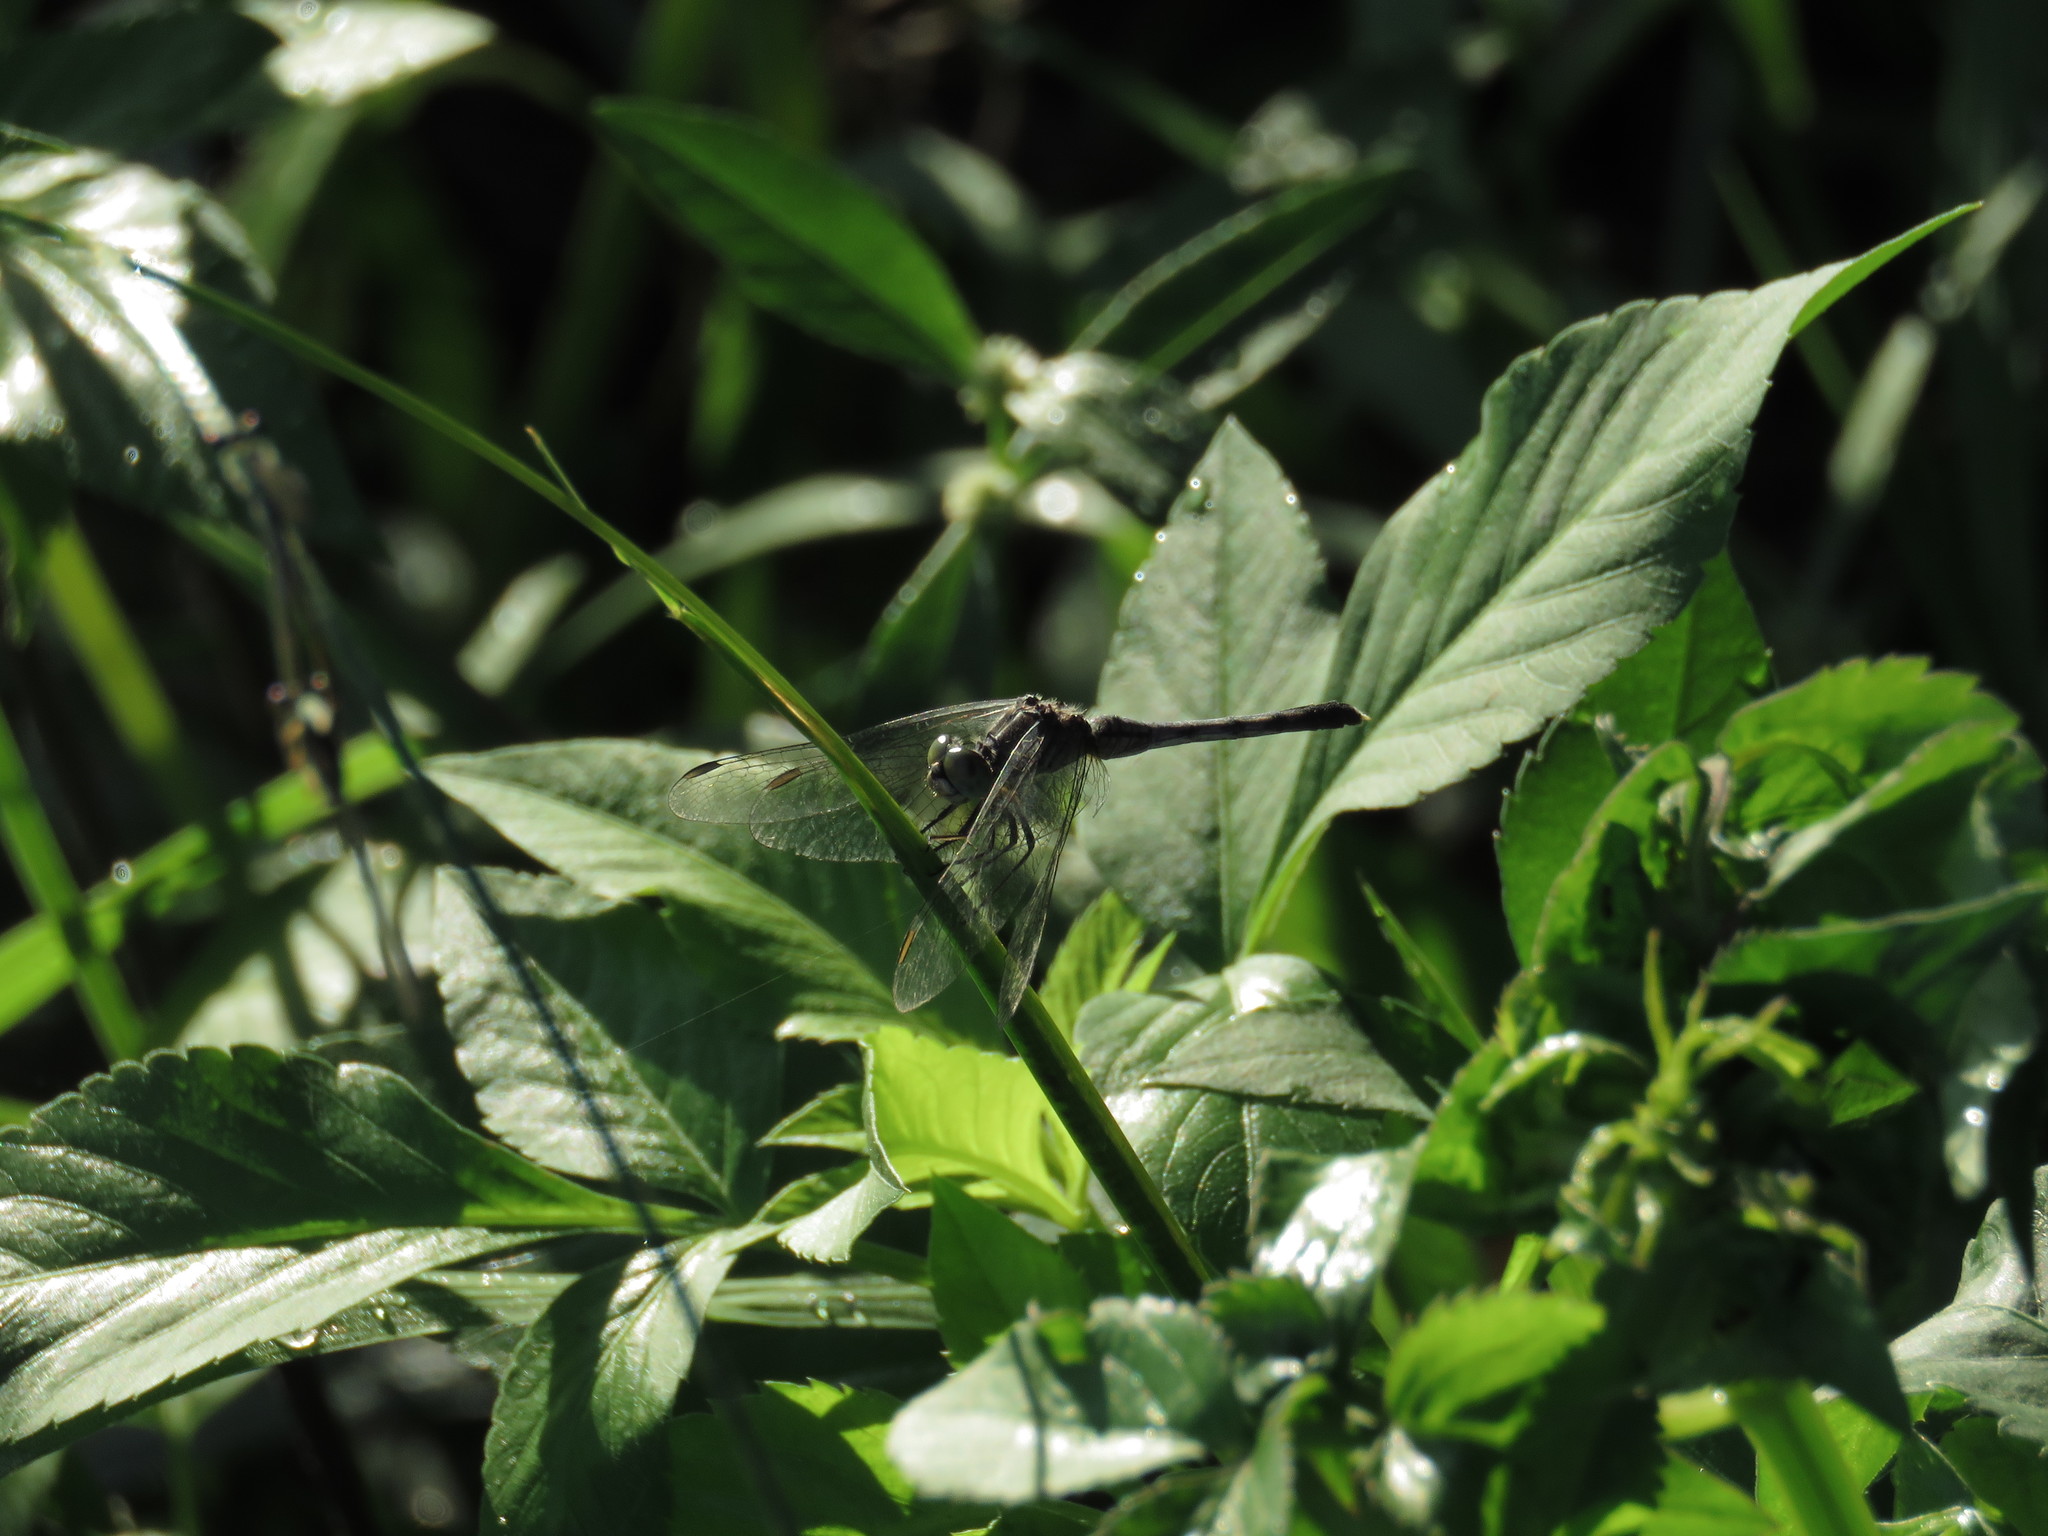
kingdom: Animalia
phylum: Arthropoda
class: Insecta
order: Odonata
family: Libellulidae
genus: Diplacodes
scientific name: Diplacodes trivialis
